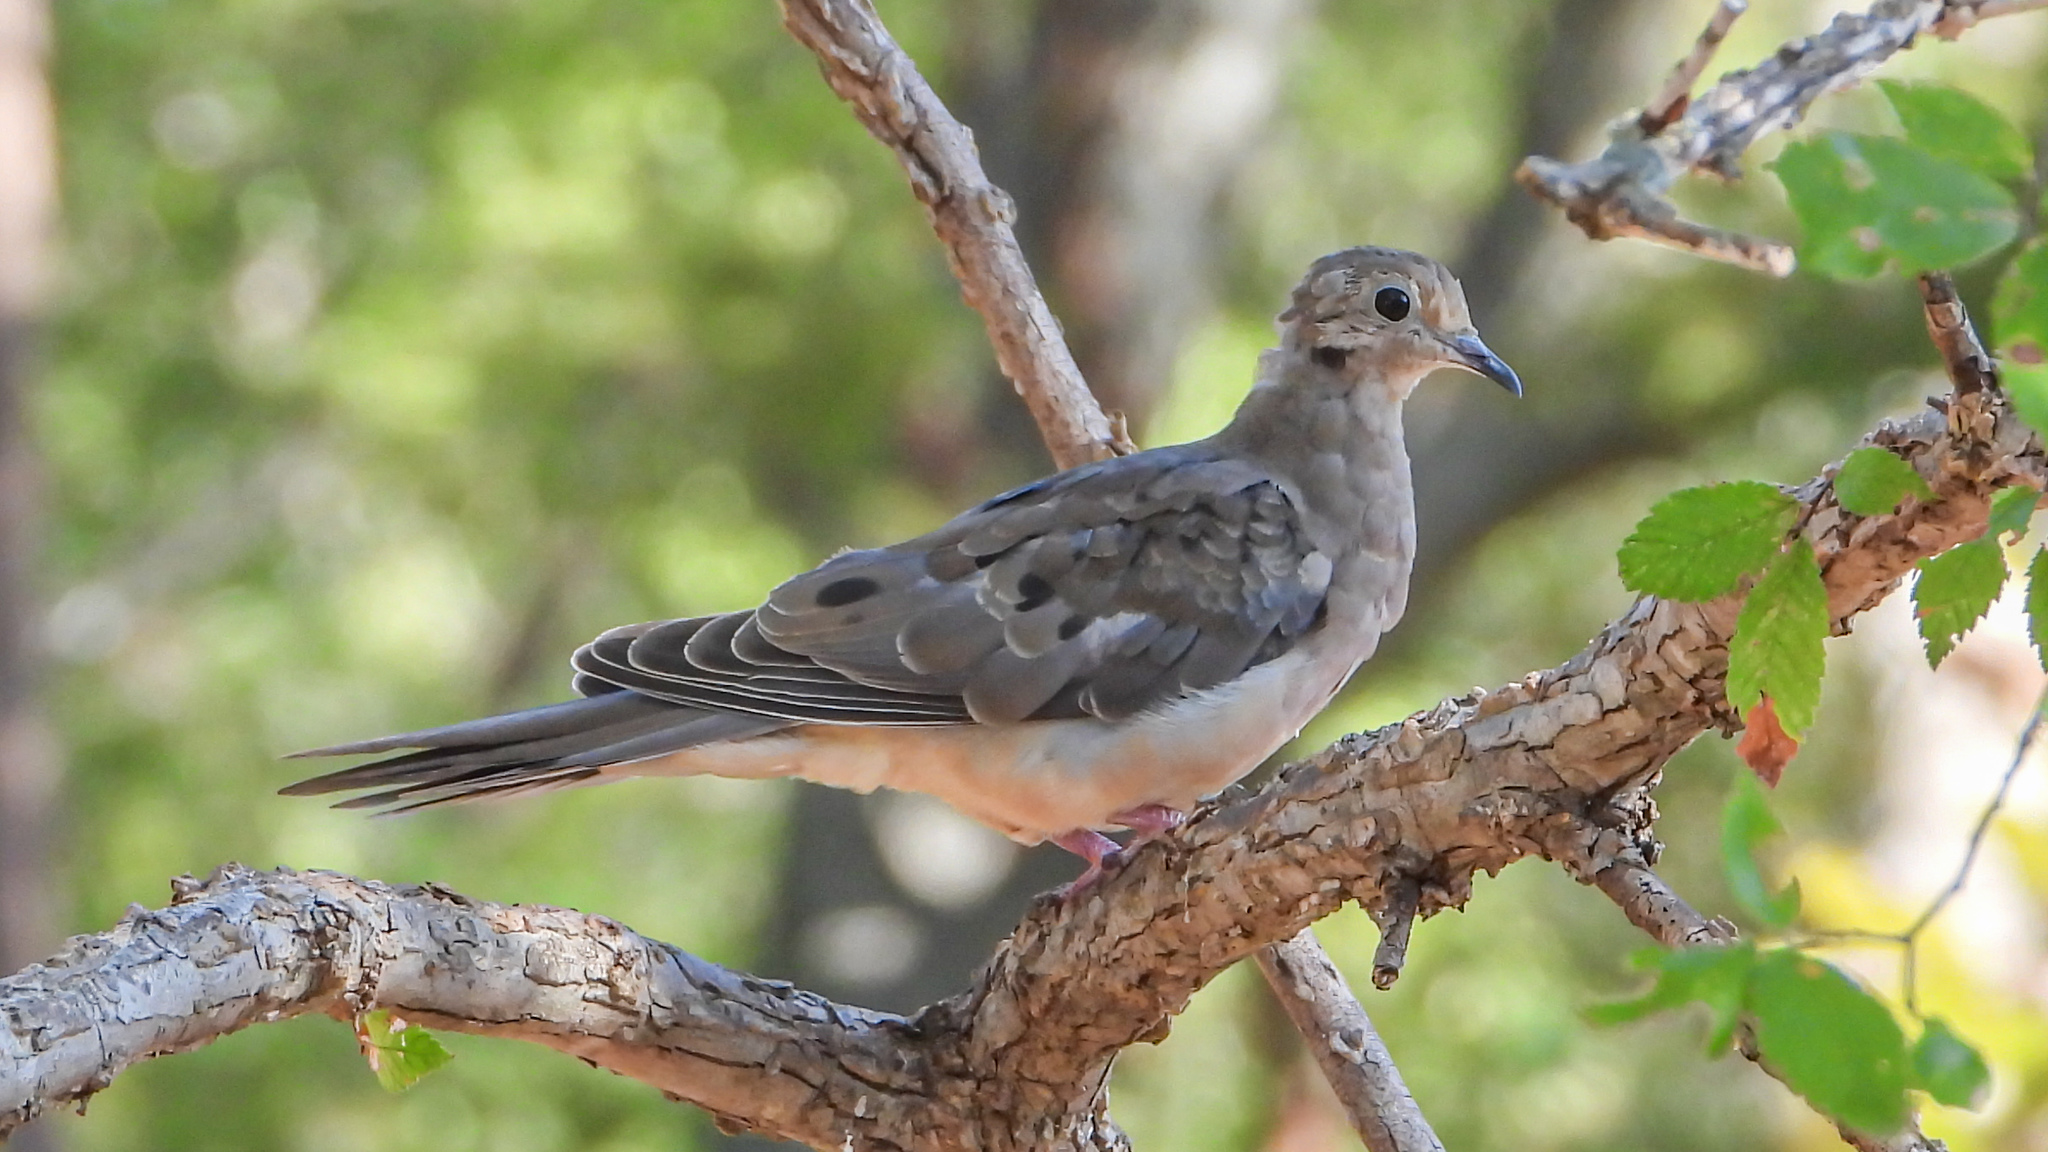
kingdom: Animalia
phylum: Chordata
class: Aves
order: Columbiformes
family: Columbidae
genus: Zenaida
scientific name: Zenaida macroura
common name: Mourning dove
